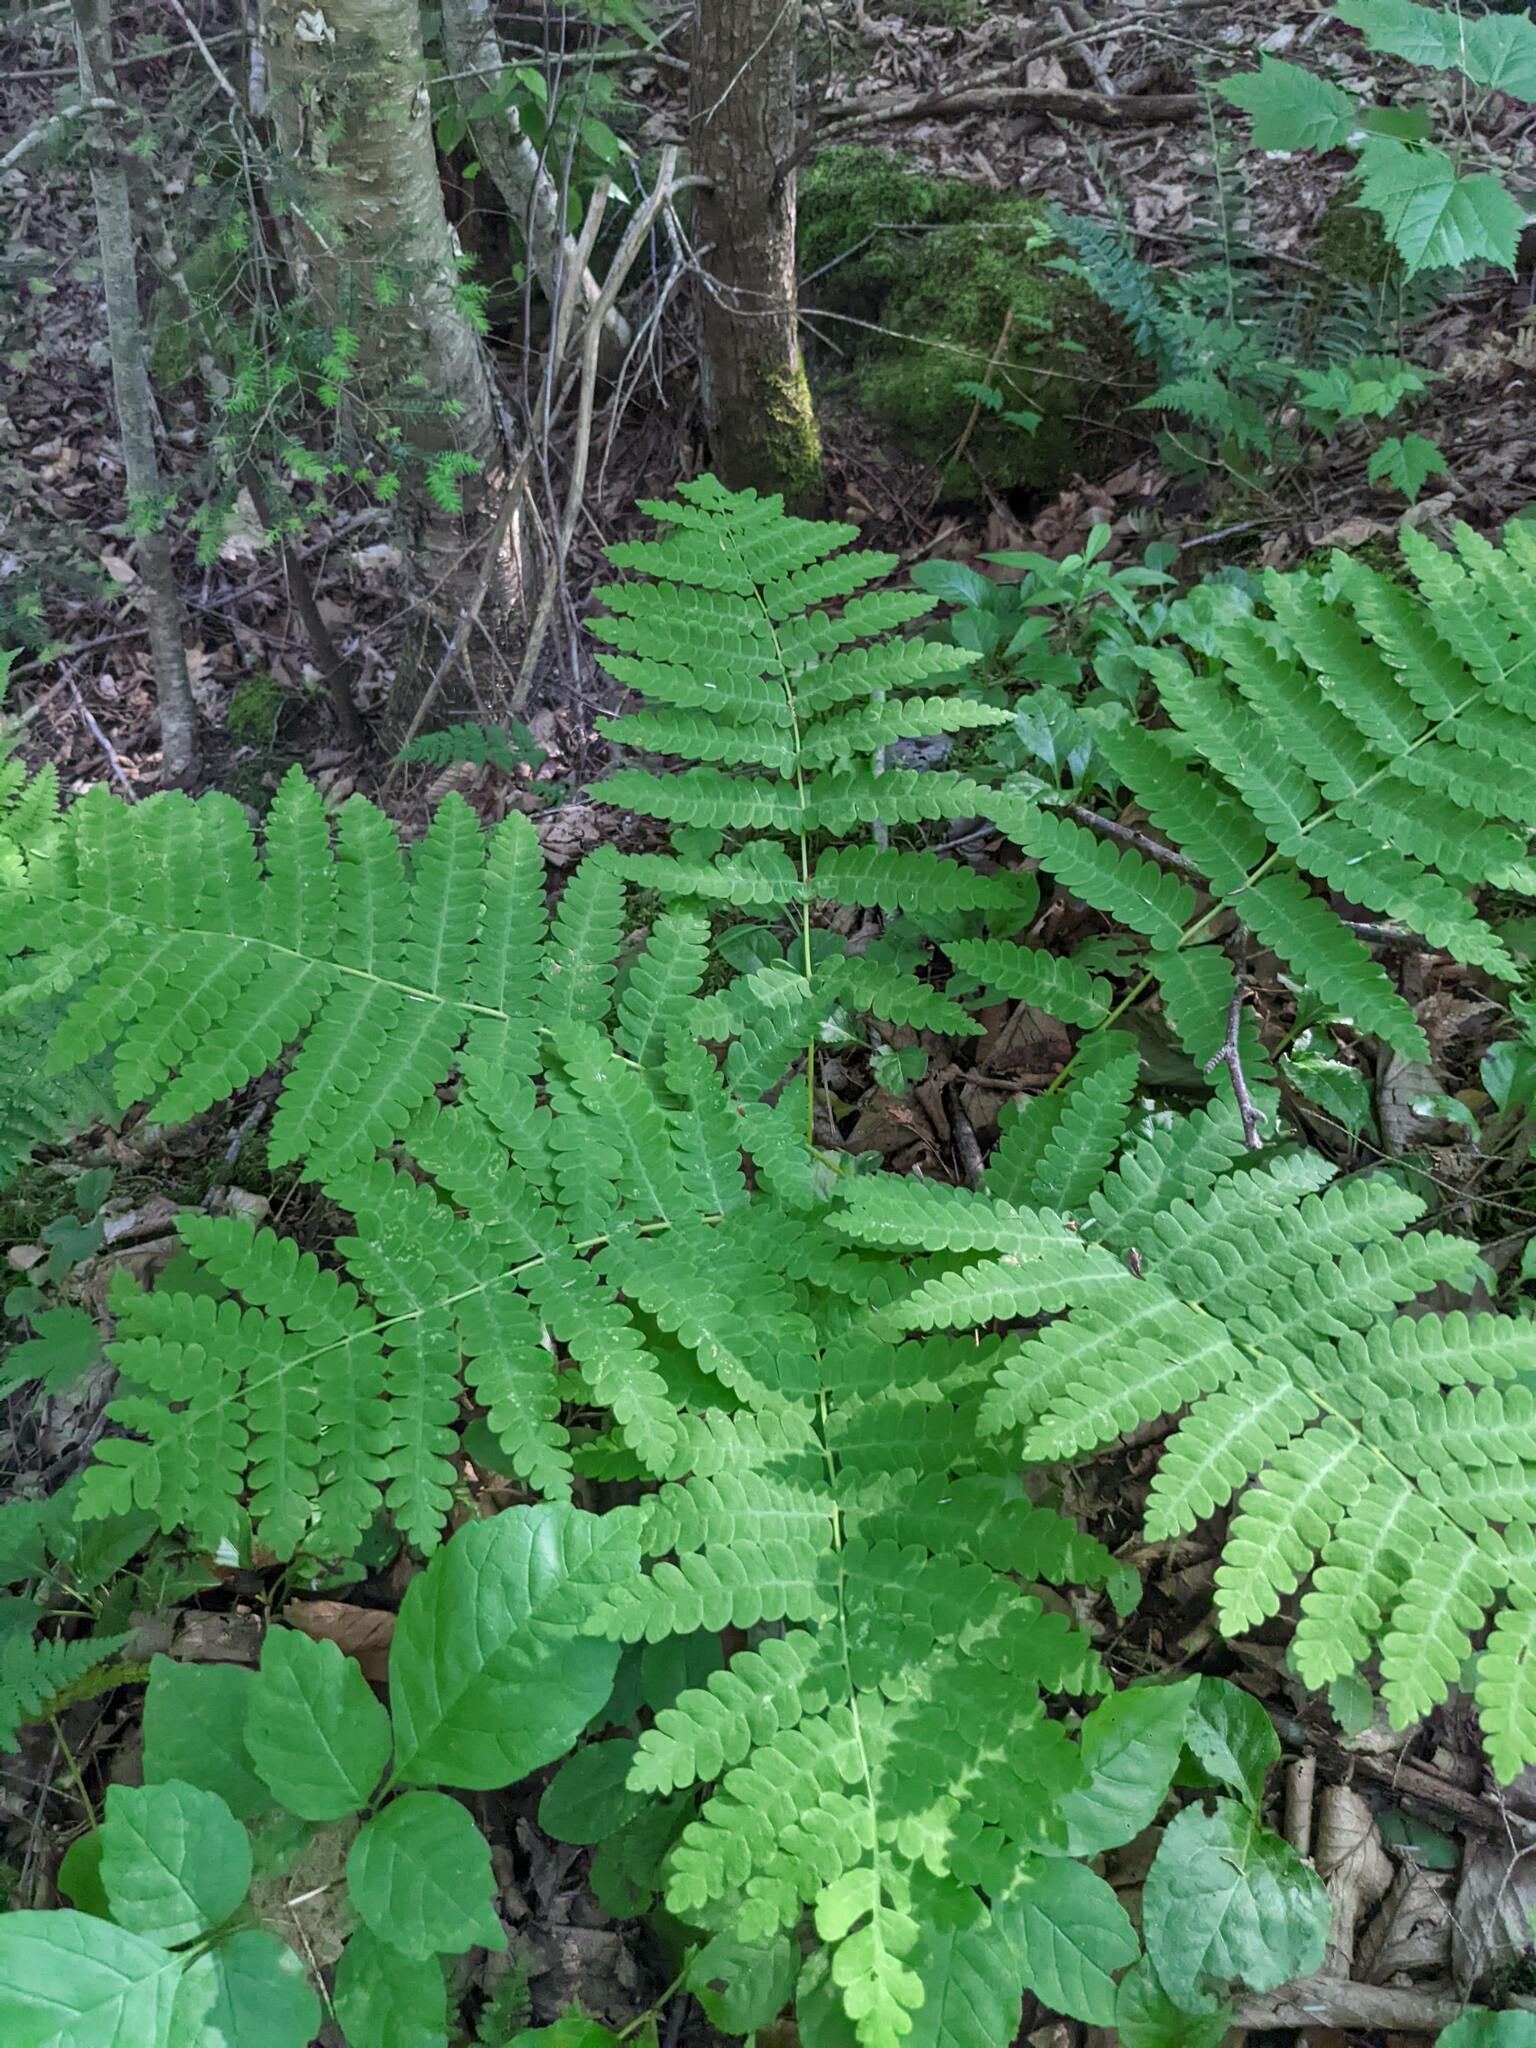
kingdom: Plantae
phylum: Tracheophyta
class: Polypodiopsida
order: Osmundales
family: Osmundaceae
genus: Claytosmunda
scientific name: Claytosmunda claytoniana
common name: Clayton's fern
